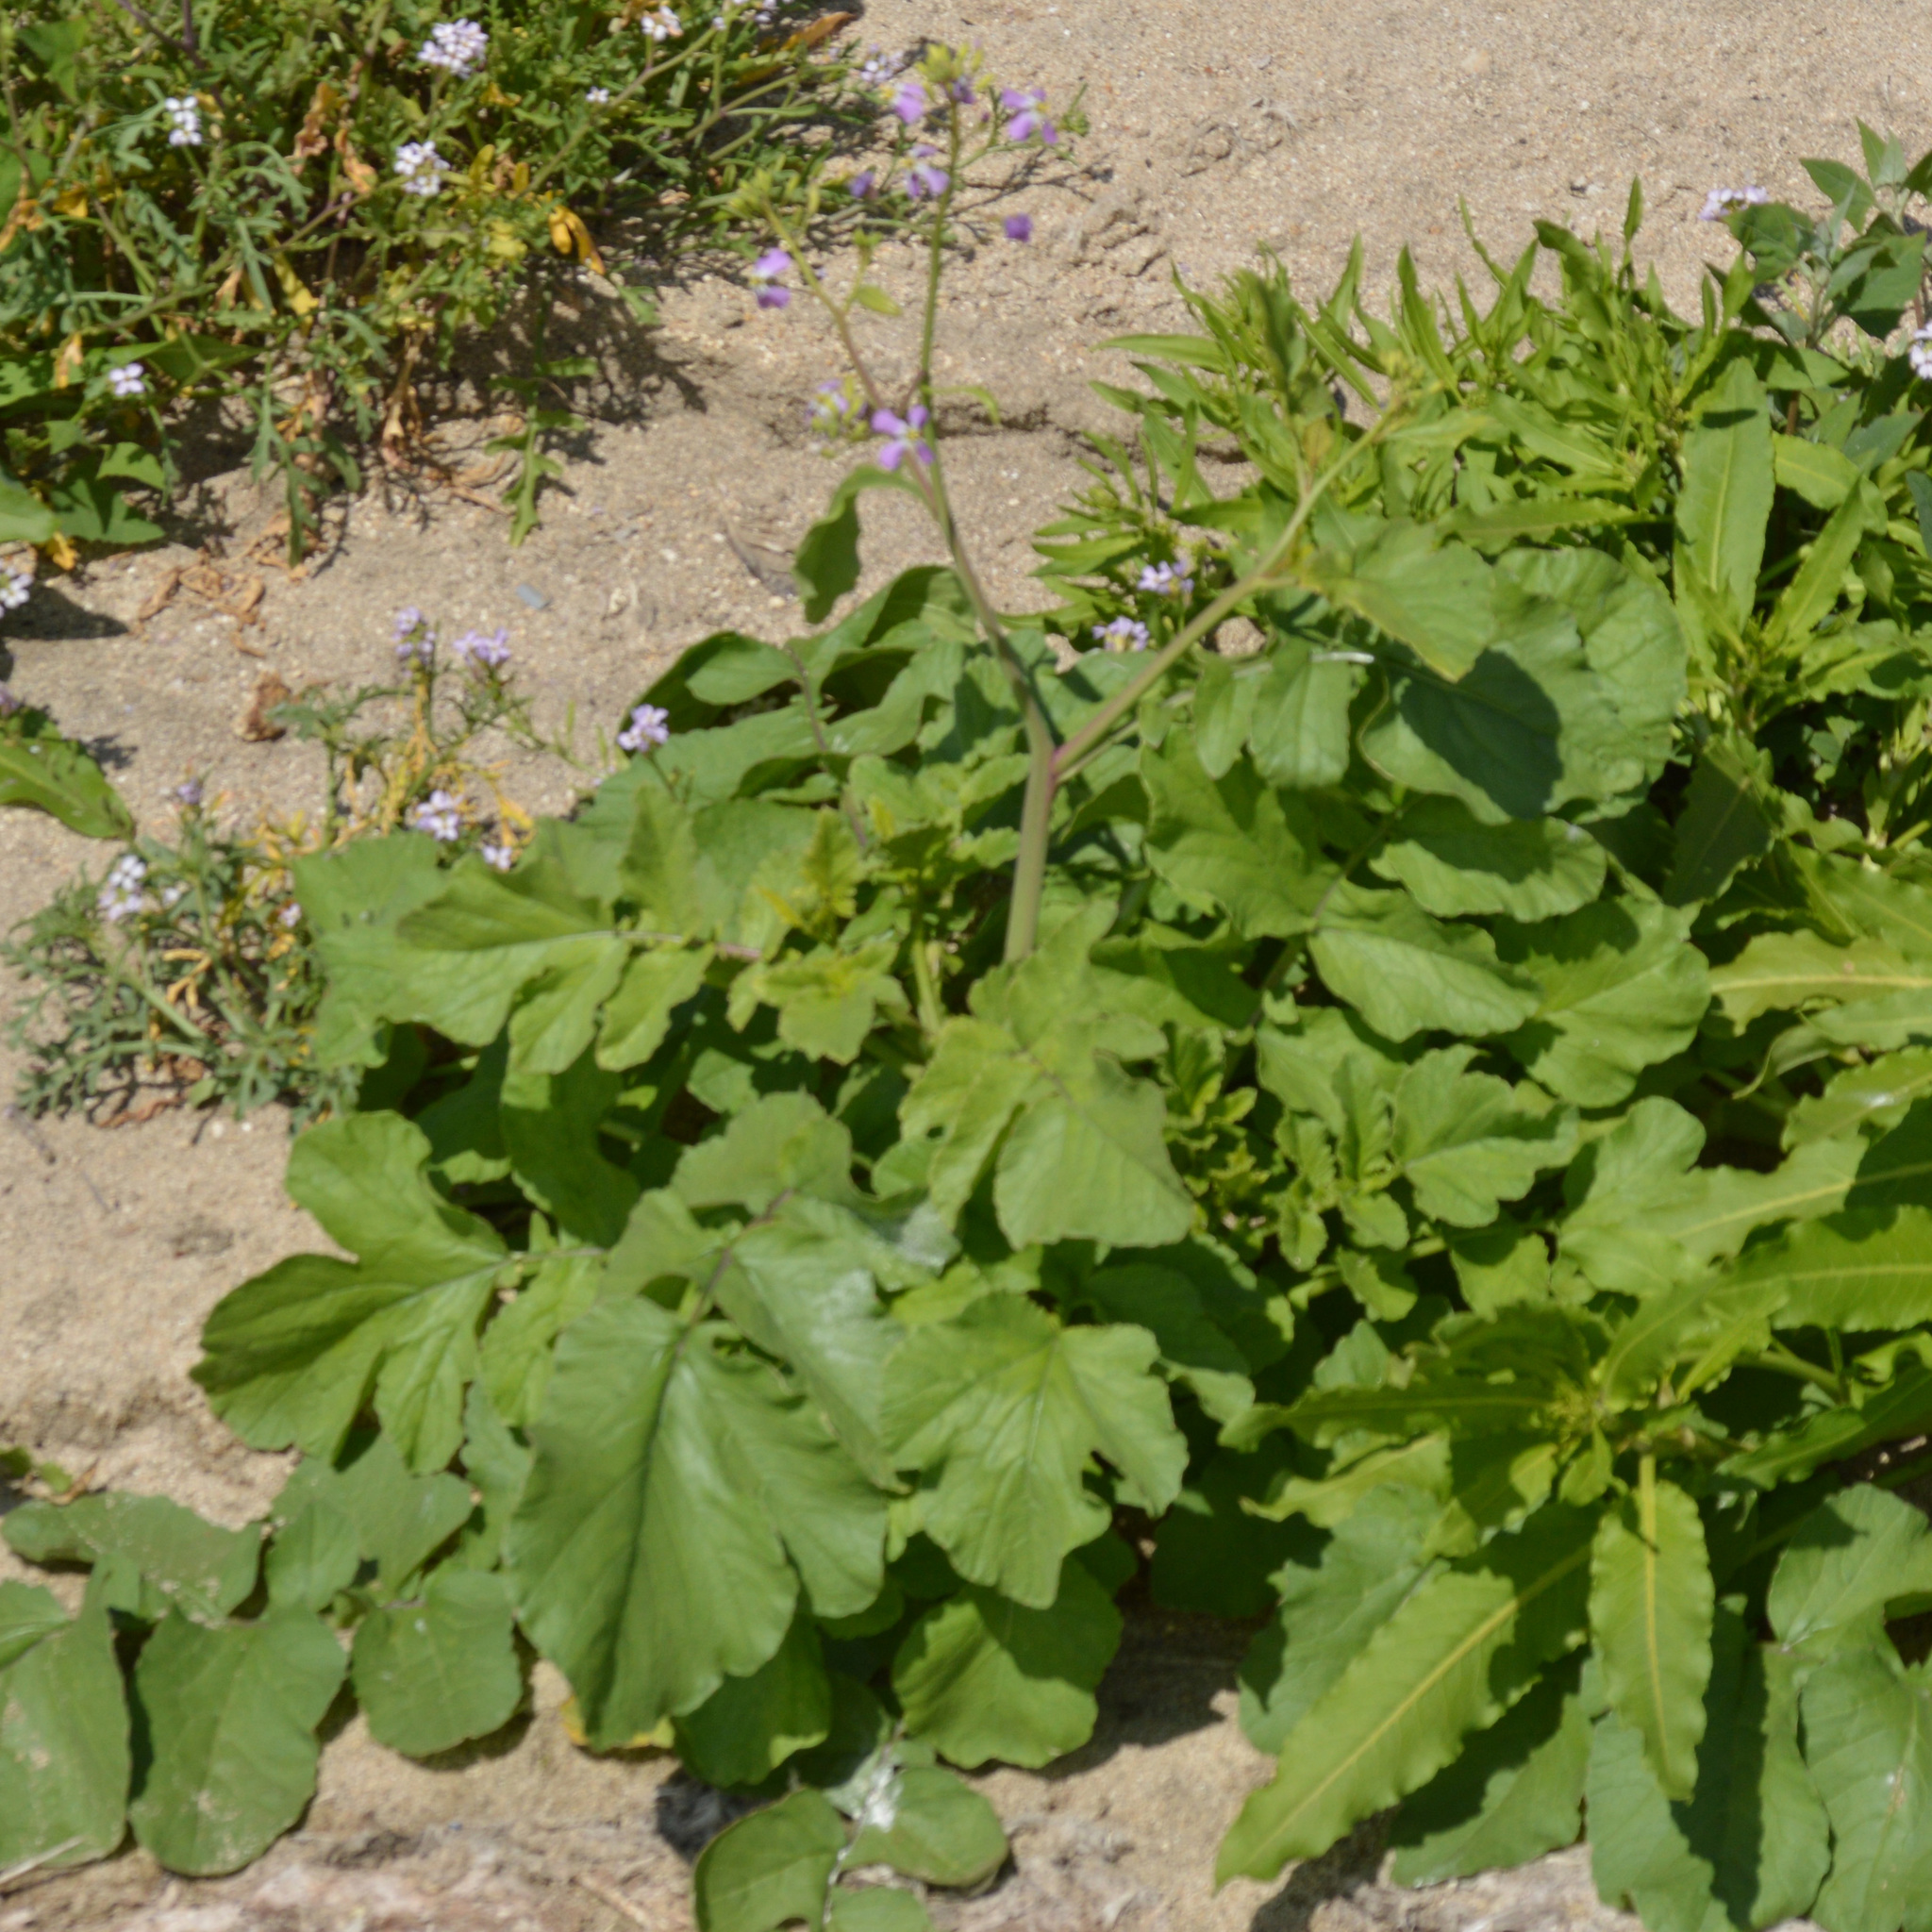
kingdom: Plantae
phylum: Tracheophyta
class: Magnoliopsida
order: Brassicales
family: Brassicaceae
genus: Raphanus
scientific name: Raphanus sativus
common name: Cultivated radish
